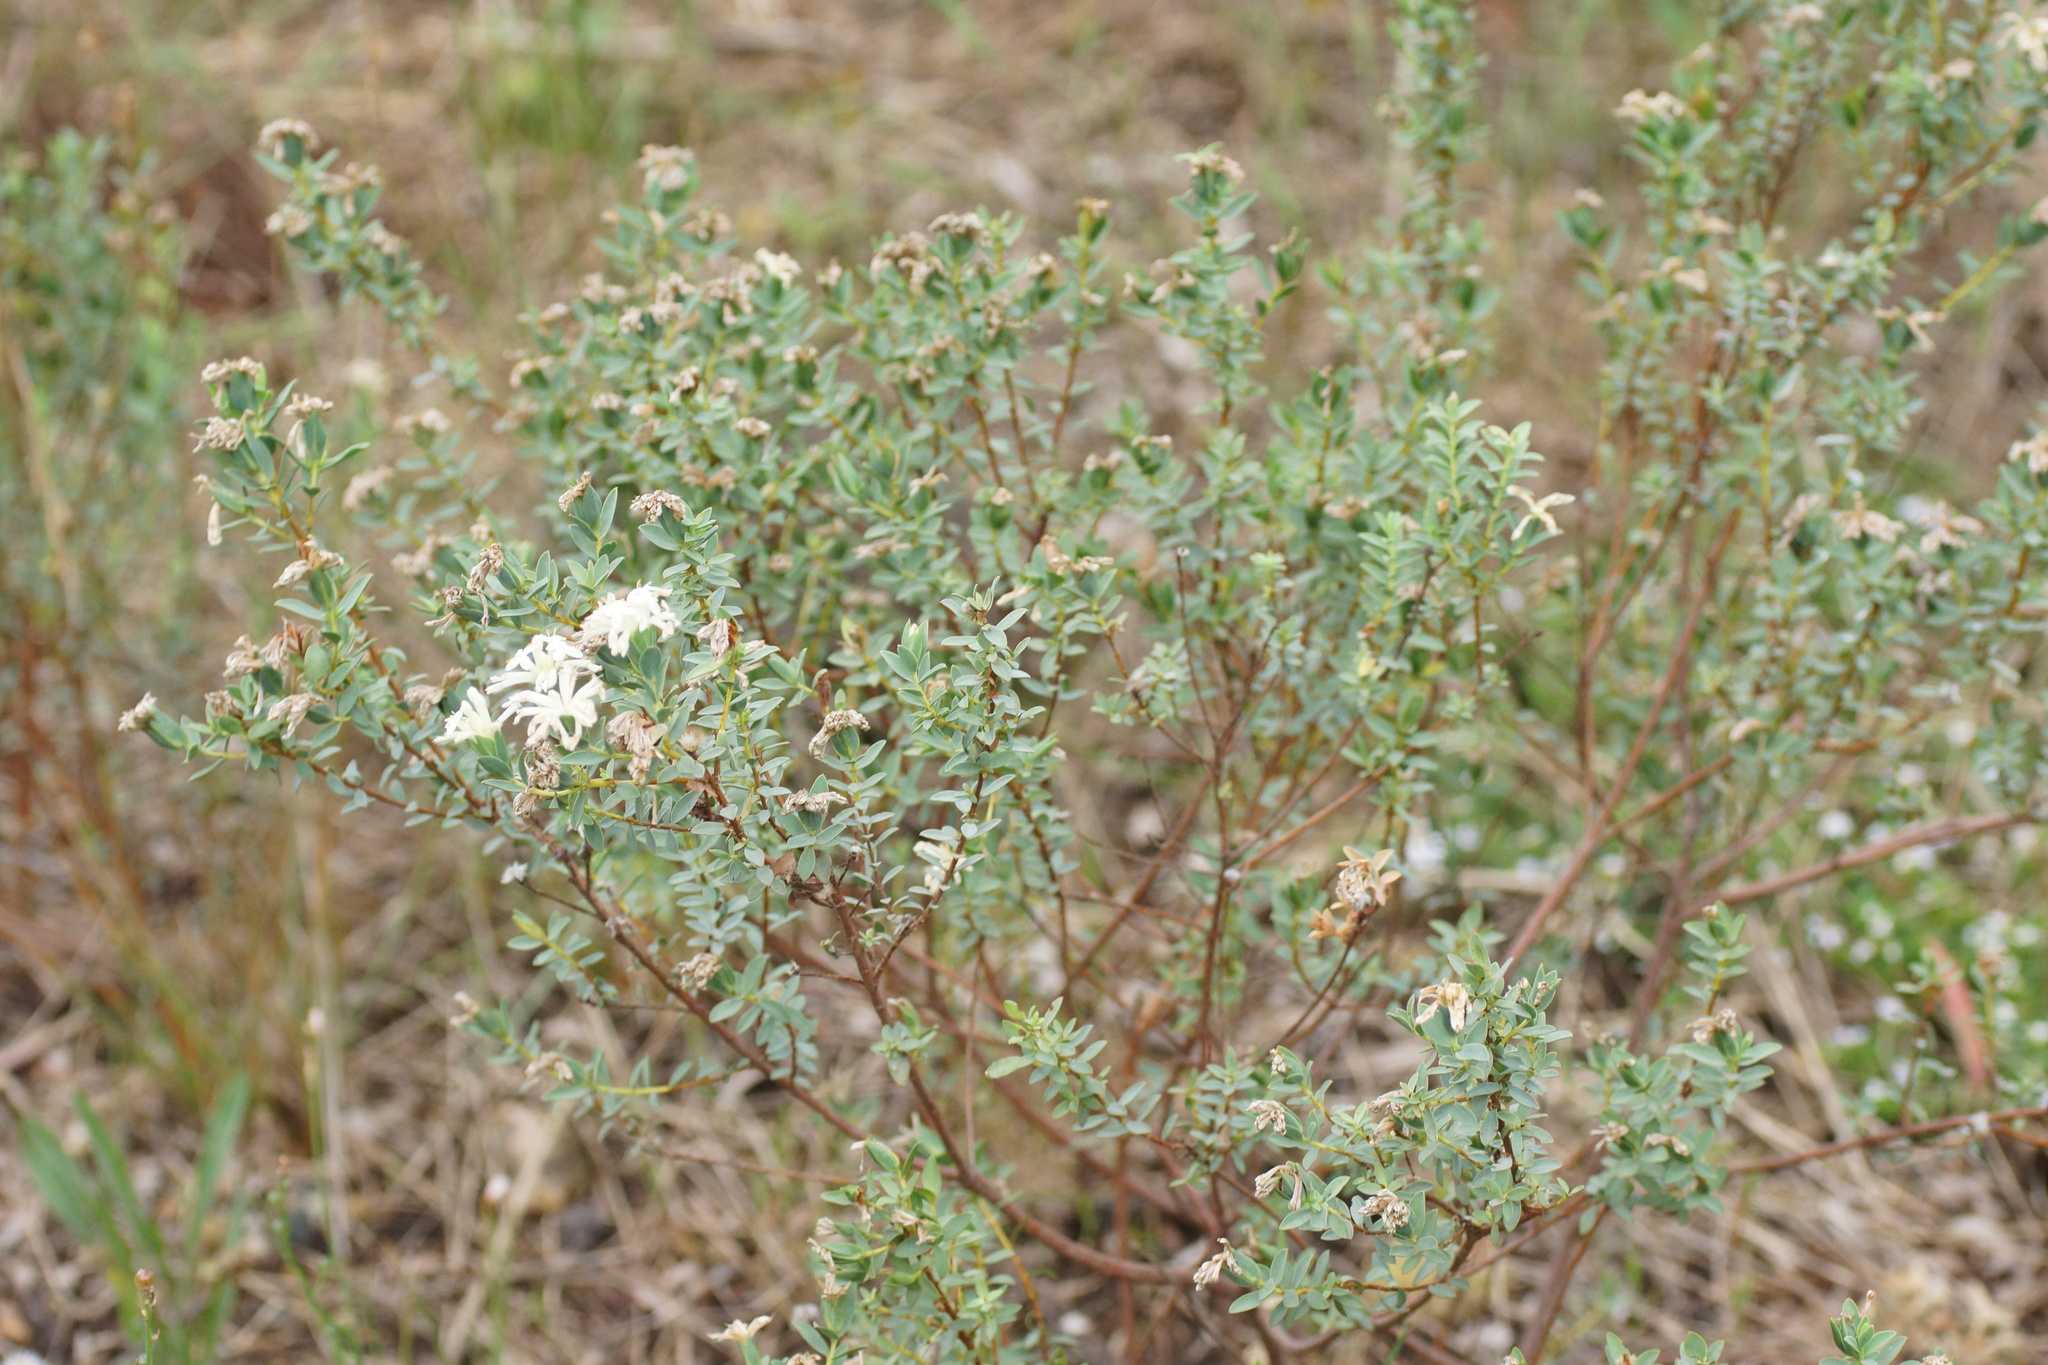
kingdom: Plantae
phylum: Tracheophyta
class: Magnoliopsida
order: Malvales
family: Thymelaeaceae
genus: Pimelea
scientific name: Pimelea glauca
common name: Smooth riceflower
